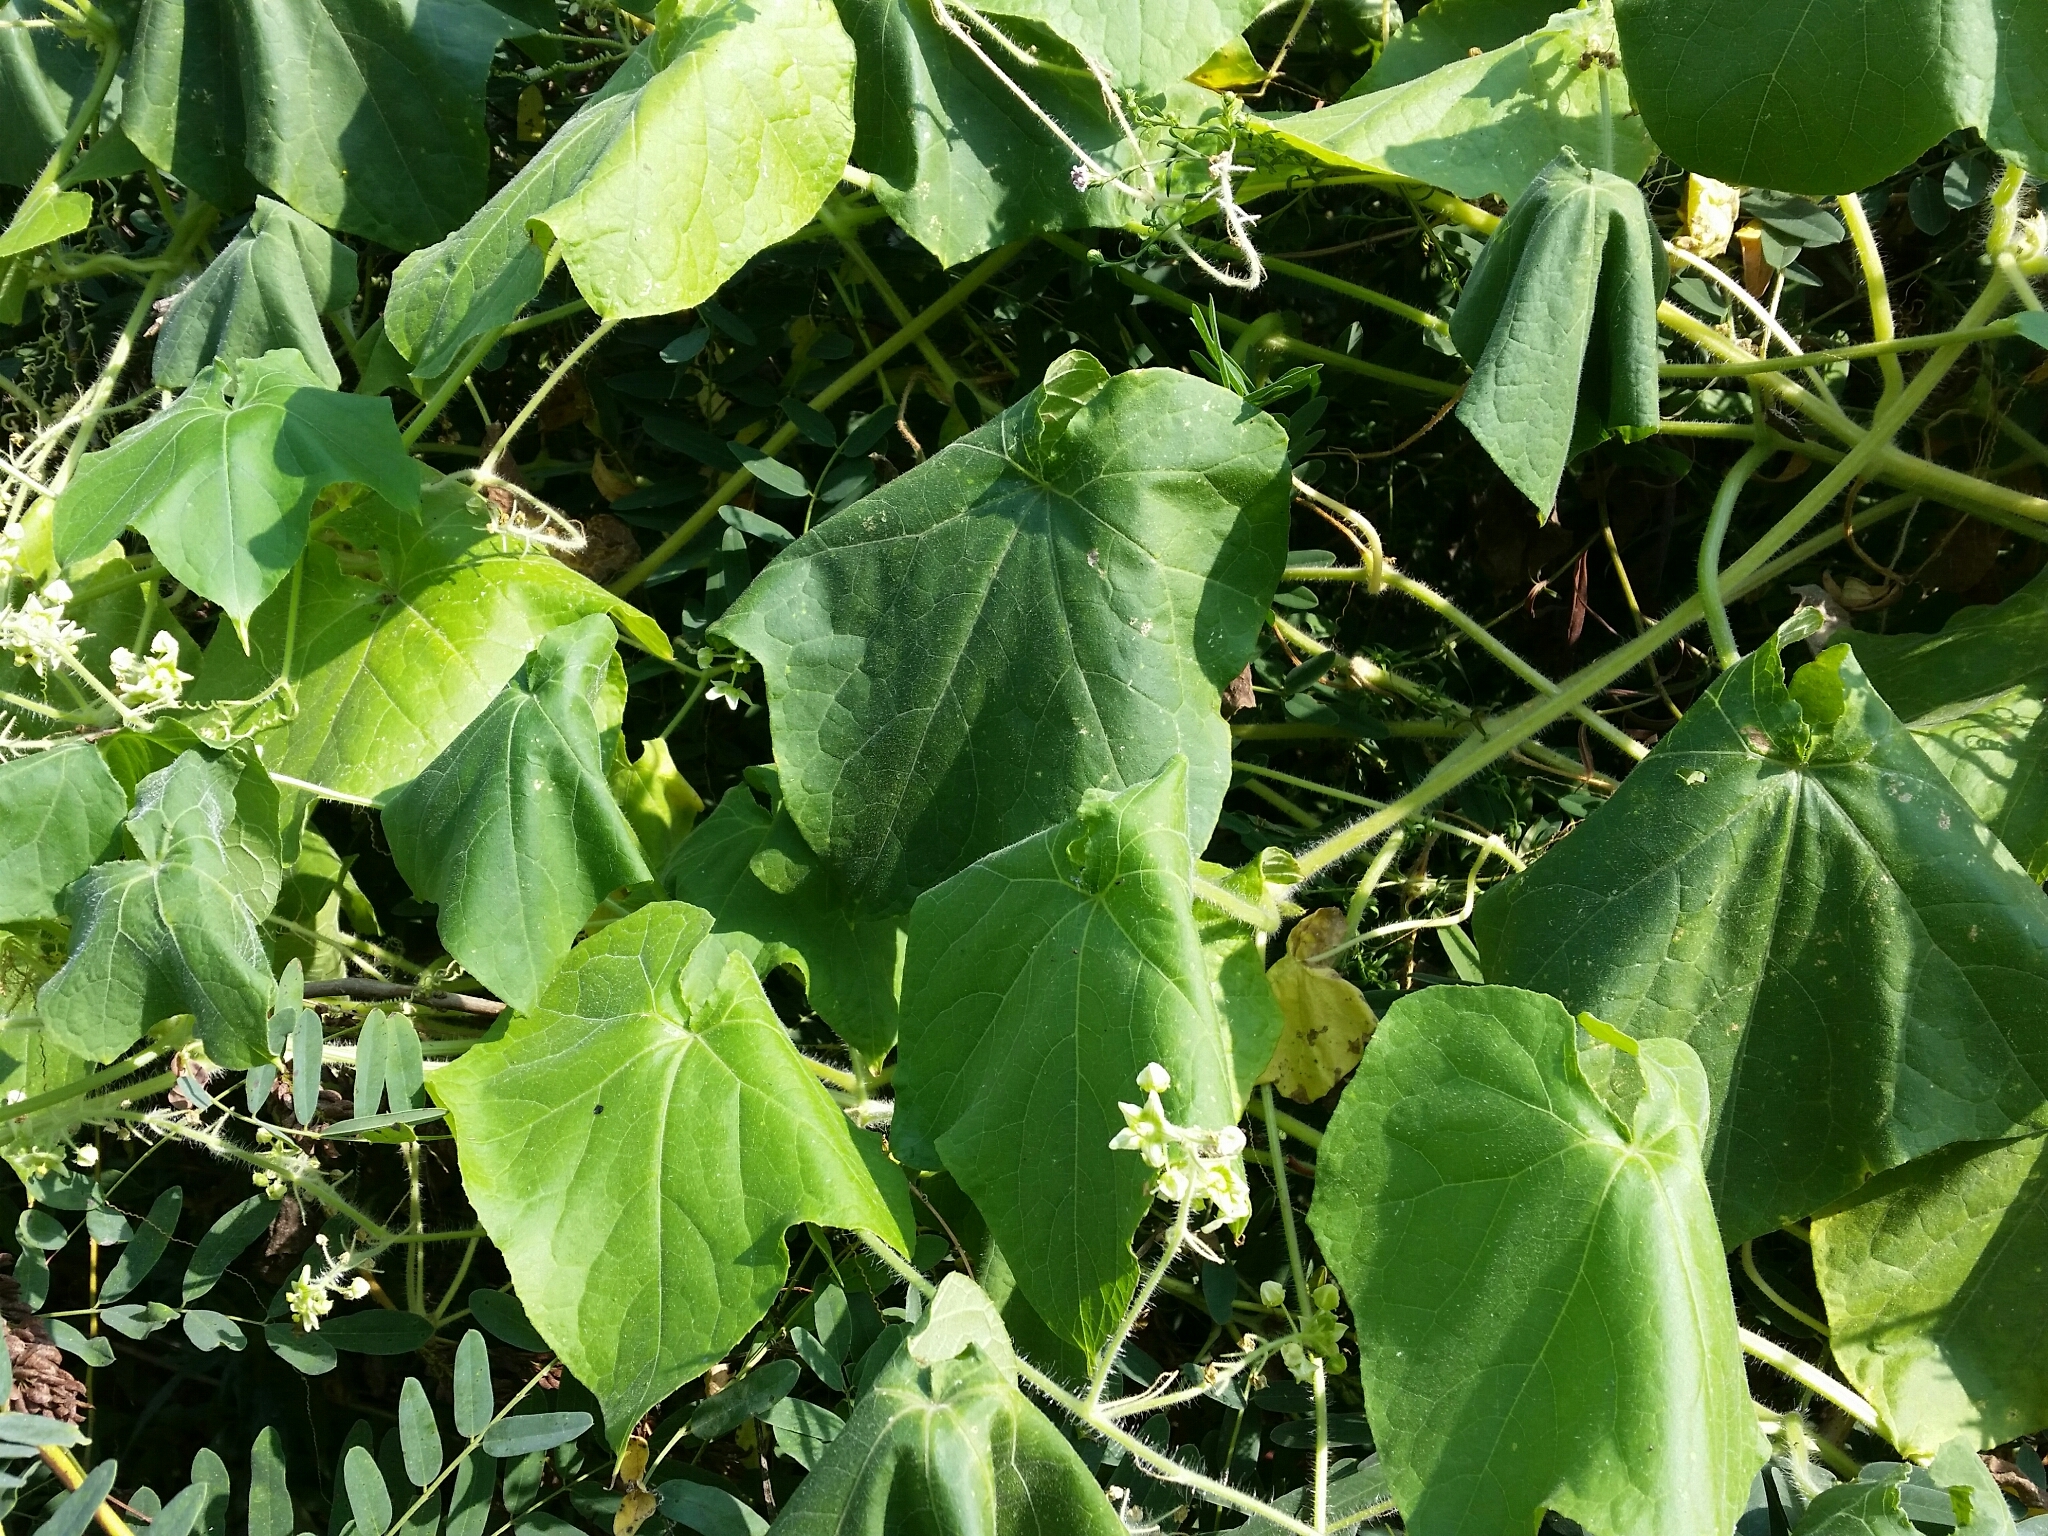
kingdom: Plantae
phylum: Tracheophyta
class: Magnoliopsida
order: Cucurbitales
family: Cucurbitaceae
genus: Sicyos
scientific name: Sicyos angulatus
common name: Angled burr cucumber
